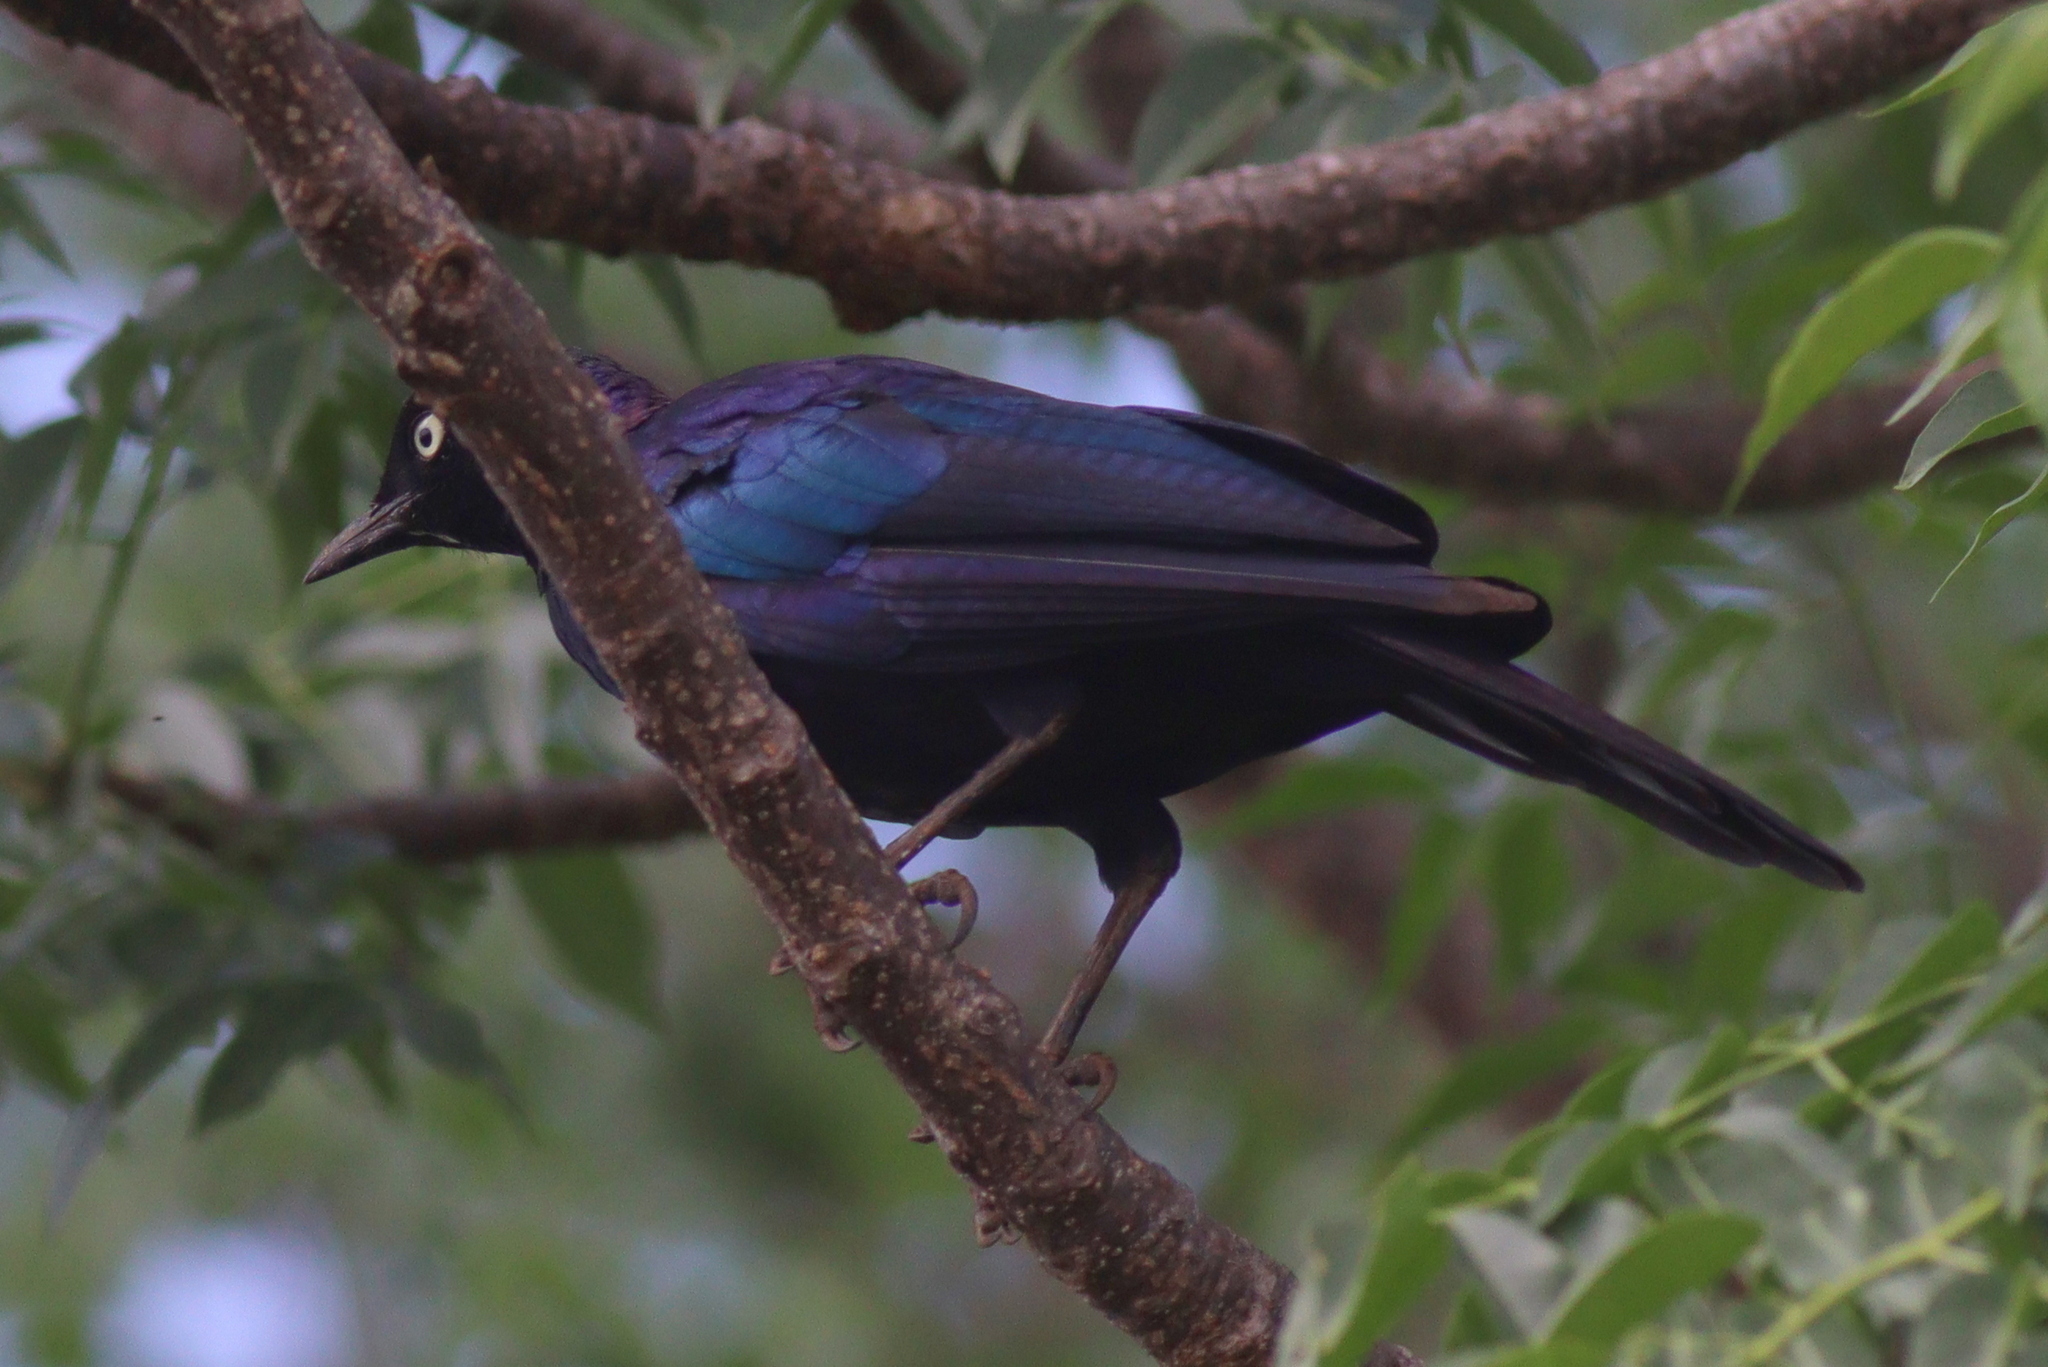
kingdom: Animalia
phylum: Chordata
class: Aves
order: Passeriformes
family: Sturnidae
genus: Lamprotornis
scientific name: Lamprotornis purpuroptera
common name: Rüppell's starling
